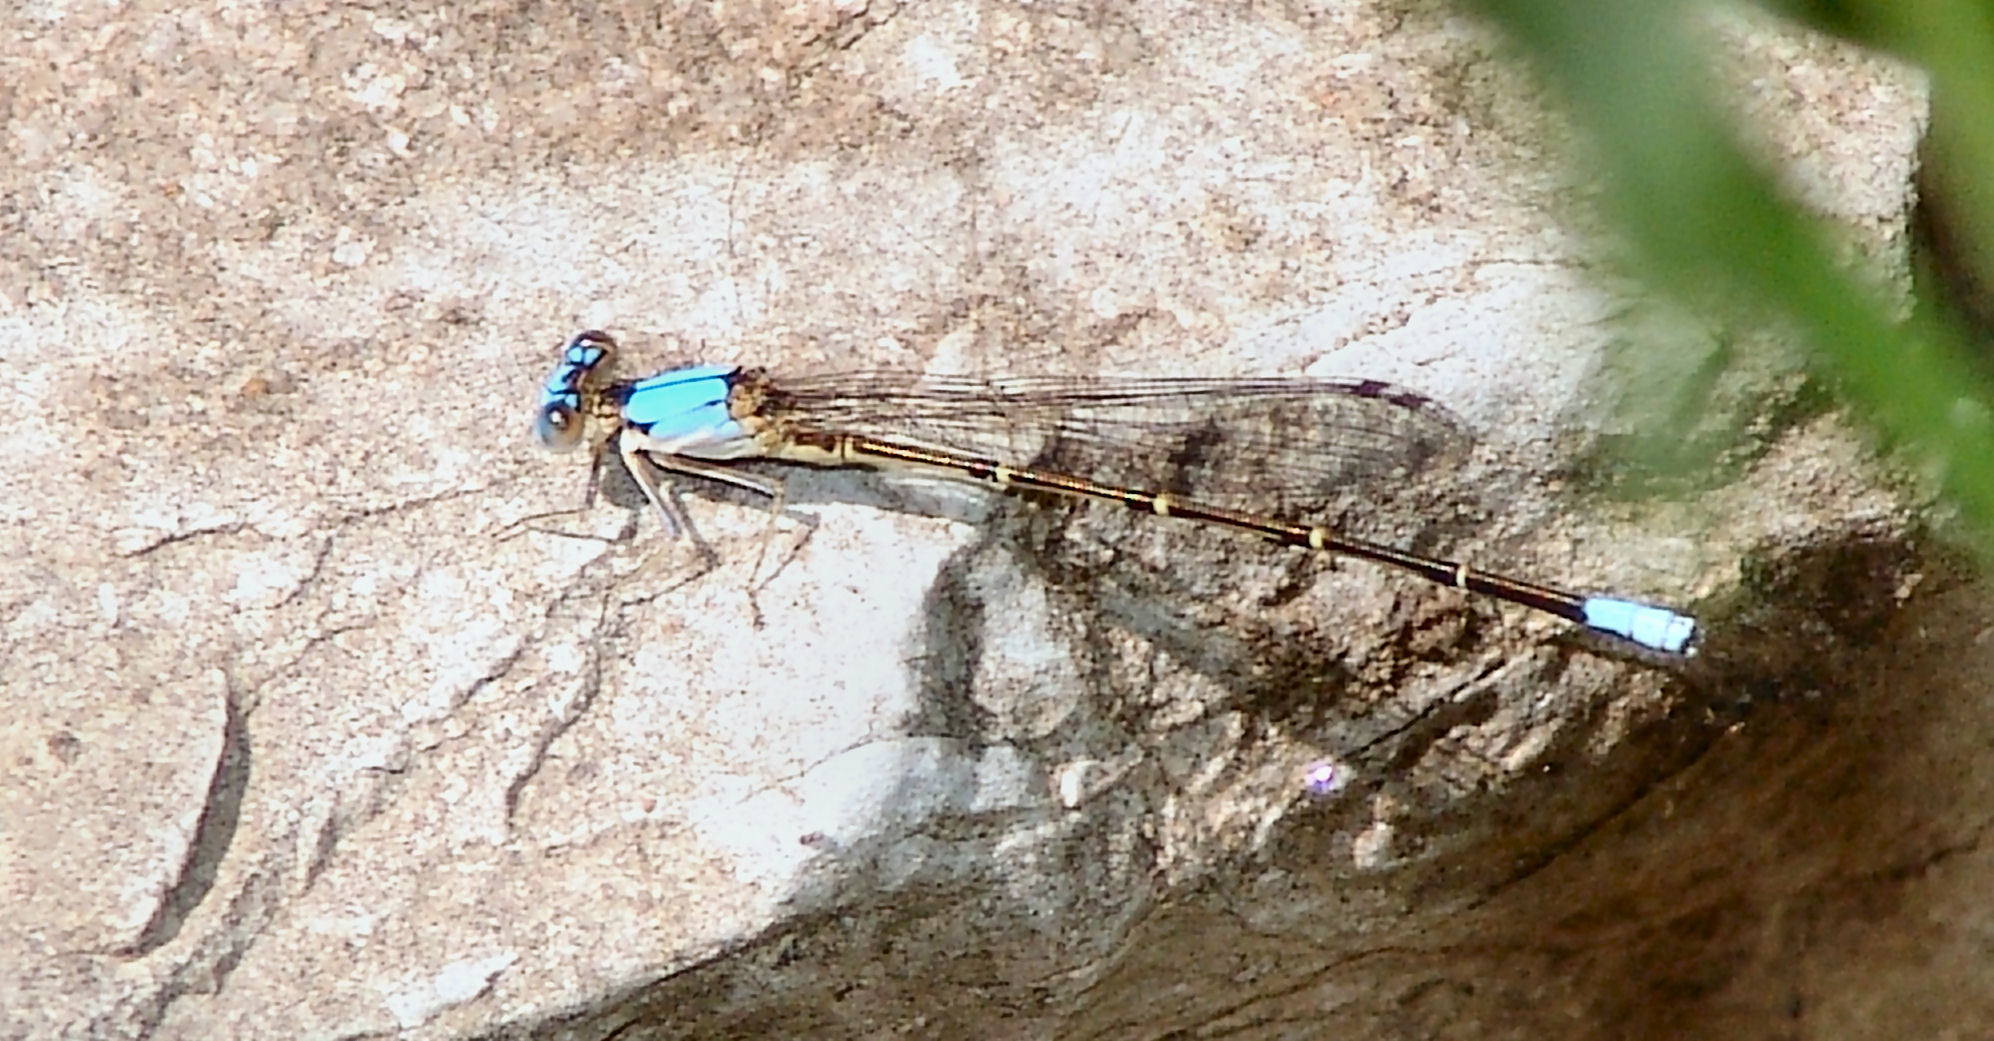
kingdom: Animalia
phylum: Arthropoda
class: Insecta
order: Odonata
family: Coenagrionidae
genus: Argia
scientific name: Argia apicalis
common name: Blue-fronted dancer
